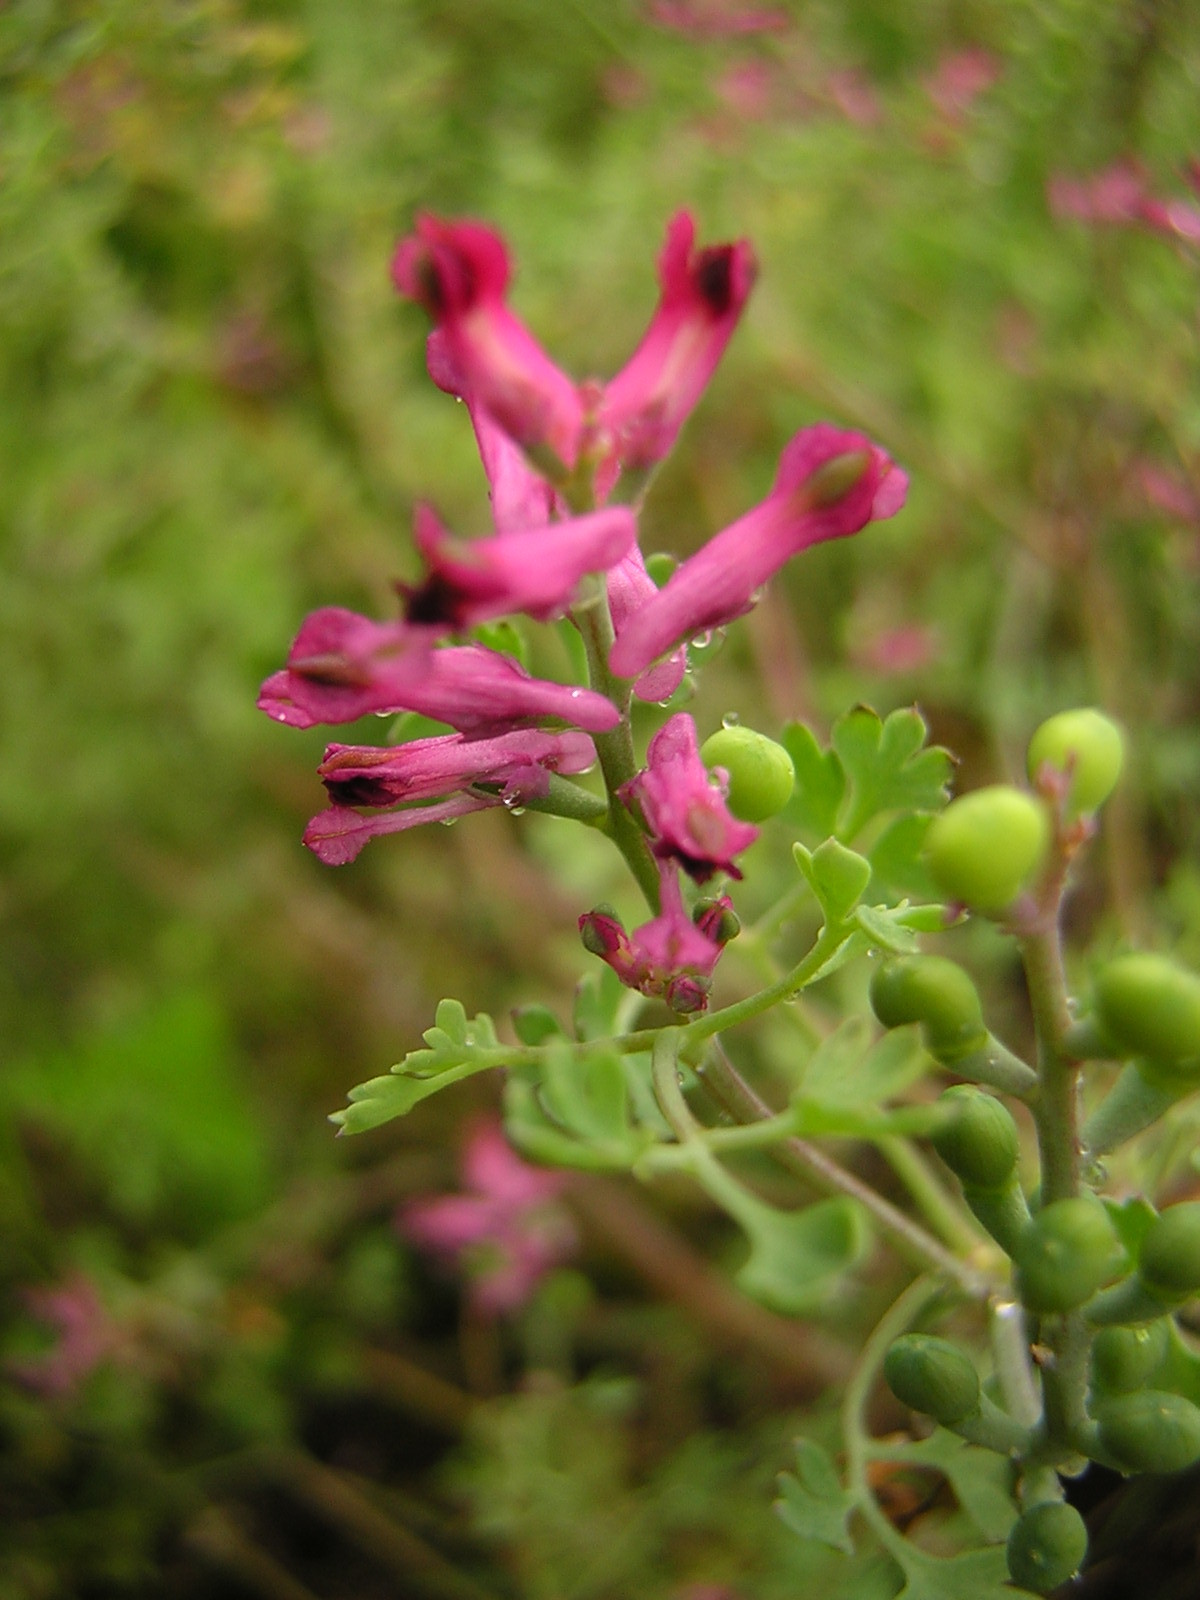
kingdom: Plantae
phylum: Tracheophyta
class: Magnoliopsida
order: Ranunculales
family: Papaveraceae
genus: Fumaria
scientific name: Fumaria officinalis
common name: Common fumitory
